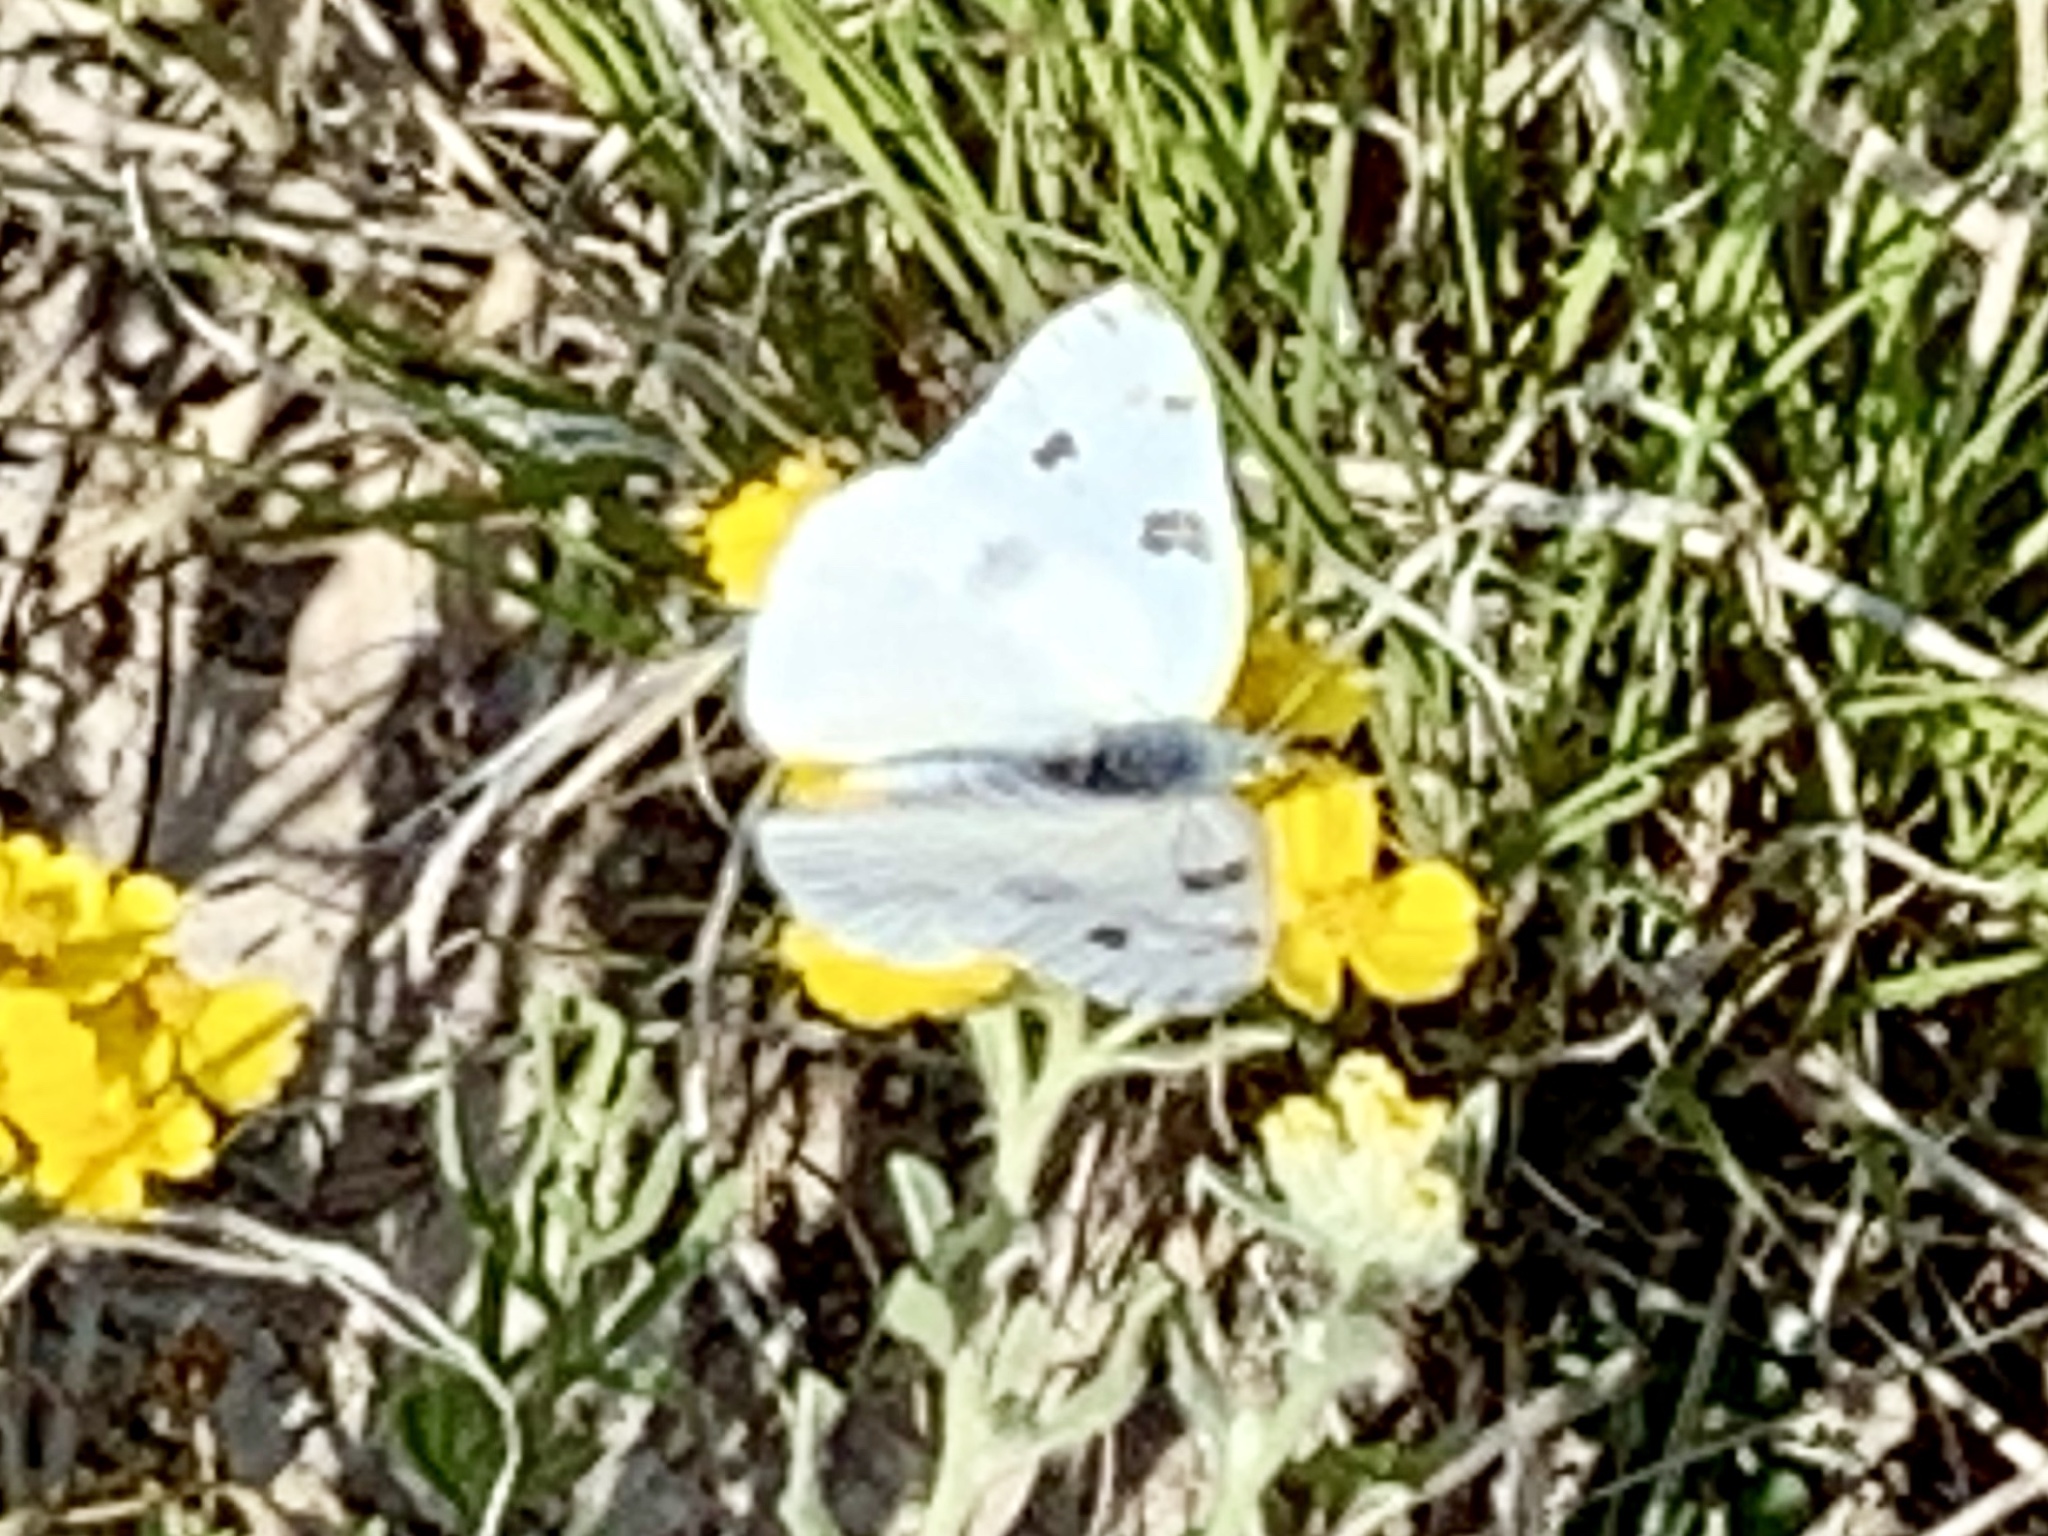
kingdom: Animalia
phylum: Arthropoda
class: Insecta
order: Lepidoptera
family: Pieridae
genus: Pontia
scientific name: Pontia protodice
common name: Checkered white
